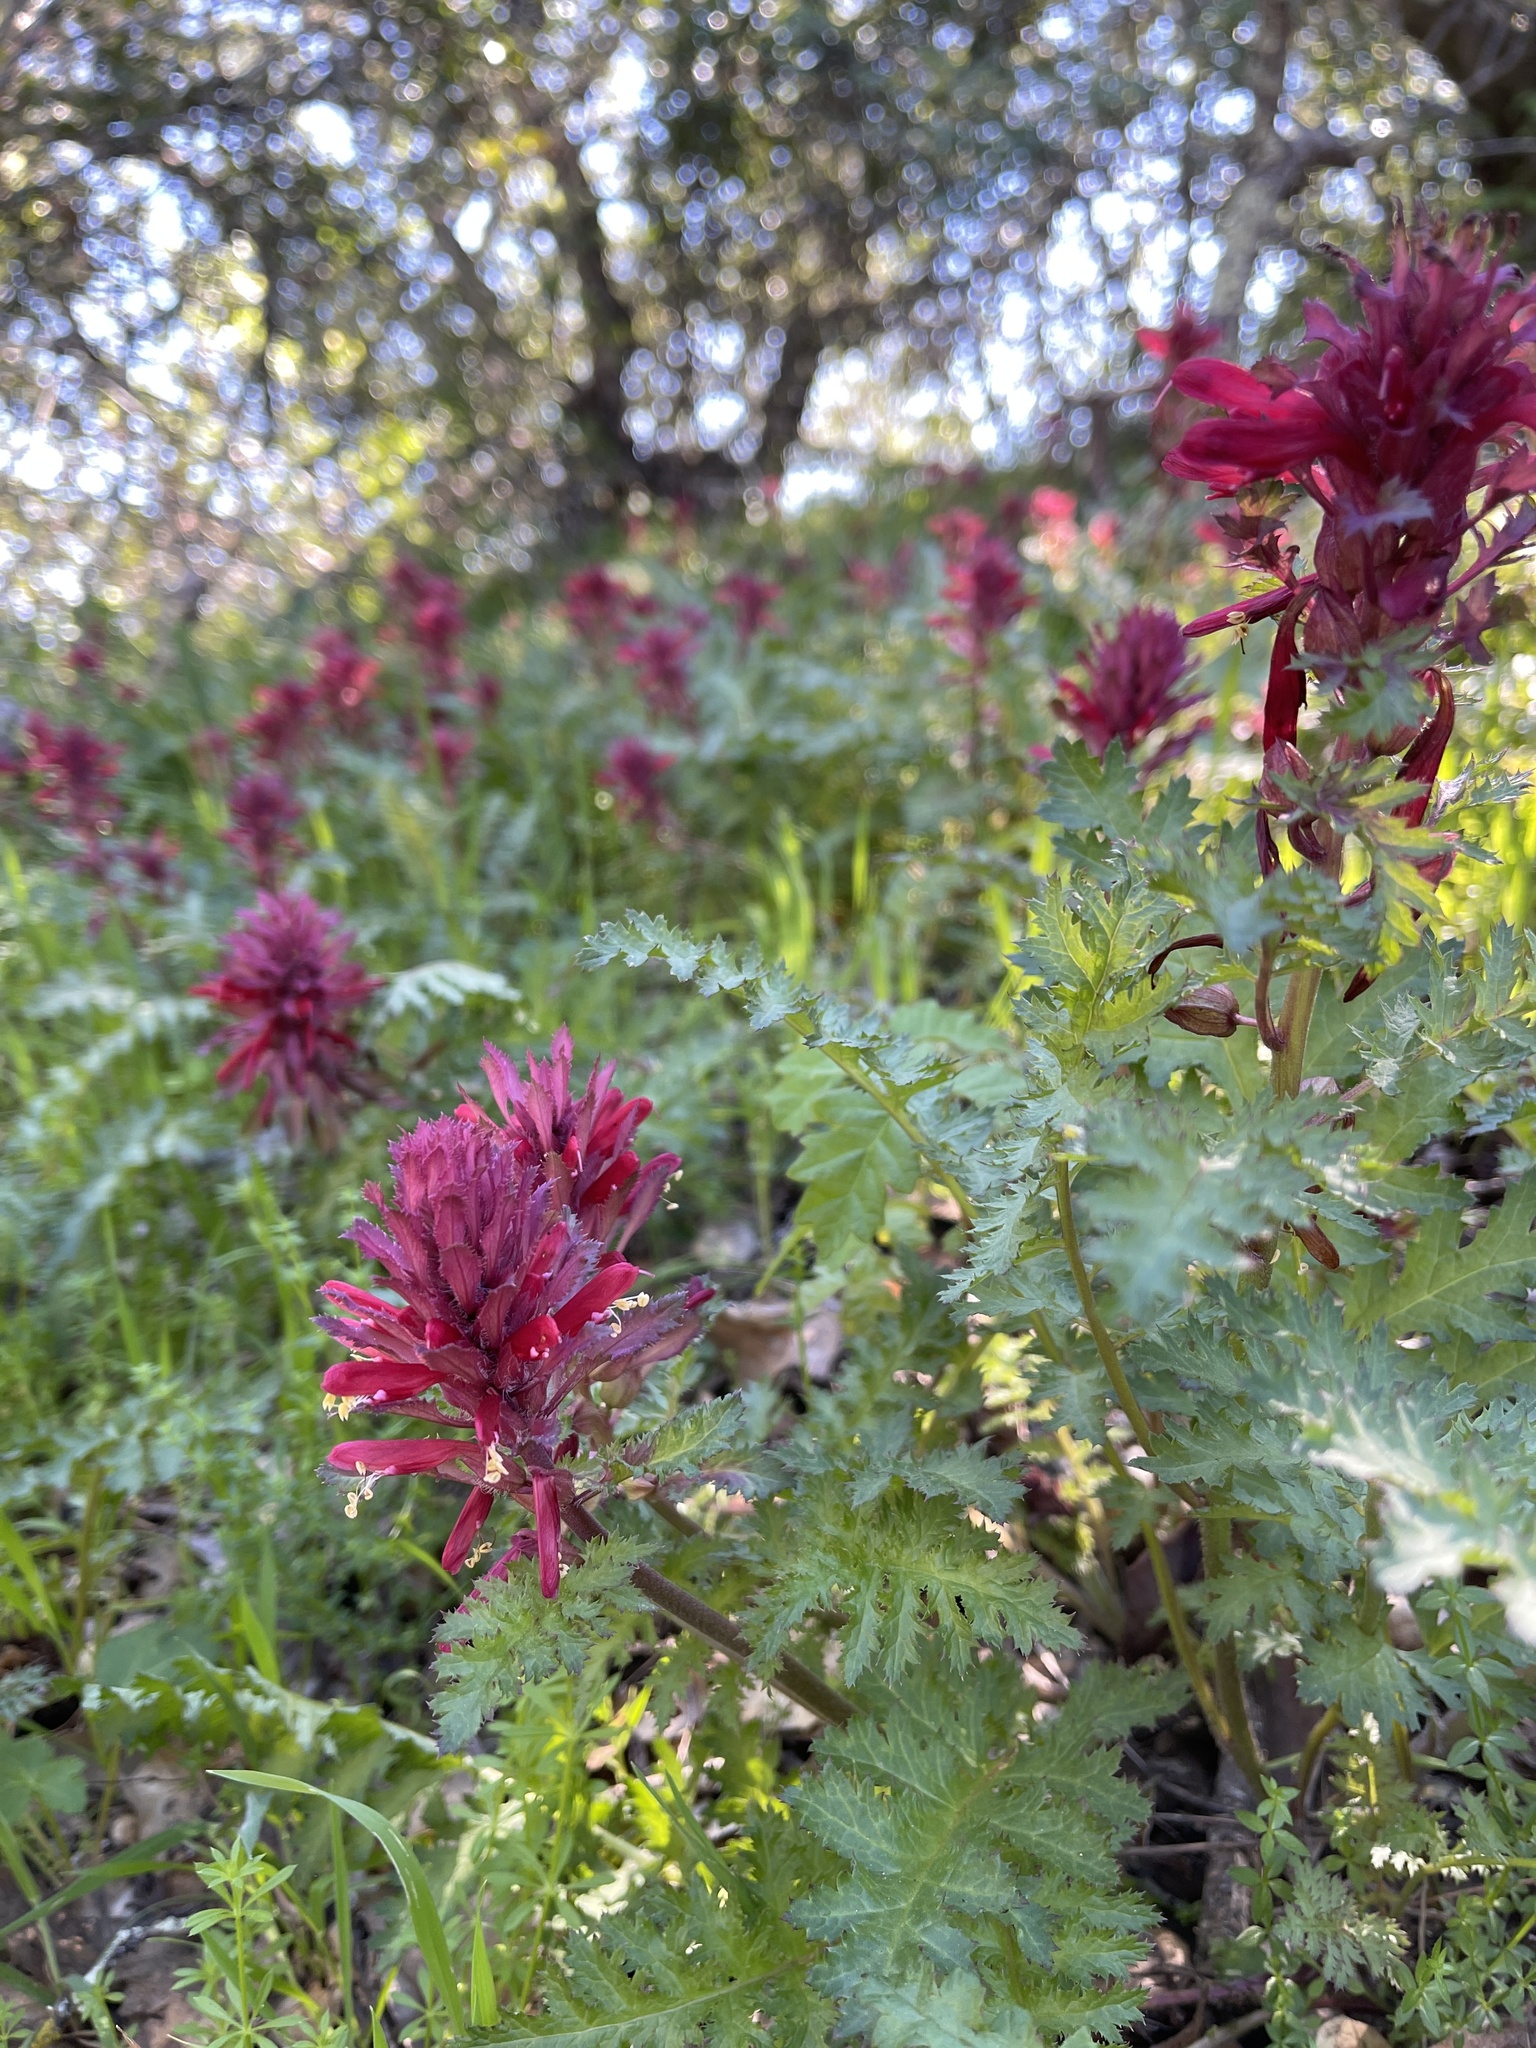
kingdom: Plantae
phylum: Tracheophyta
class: Magnoliopsida
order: Lamiales
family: Orobanchaceae
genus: Pedicularis
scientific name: Pedicularis densiflora
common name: Indian warrior
